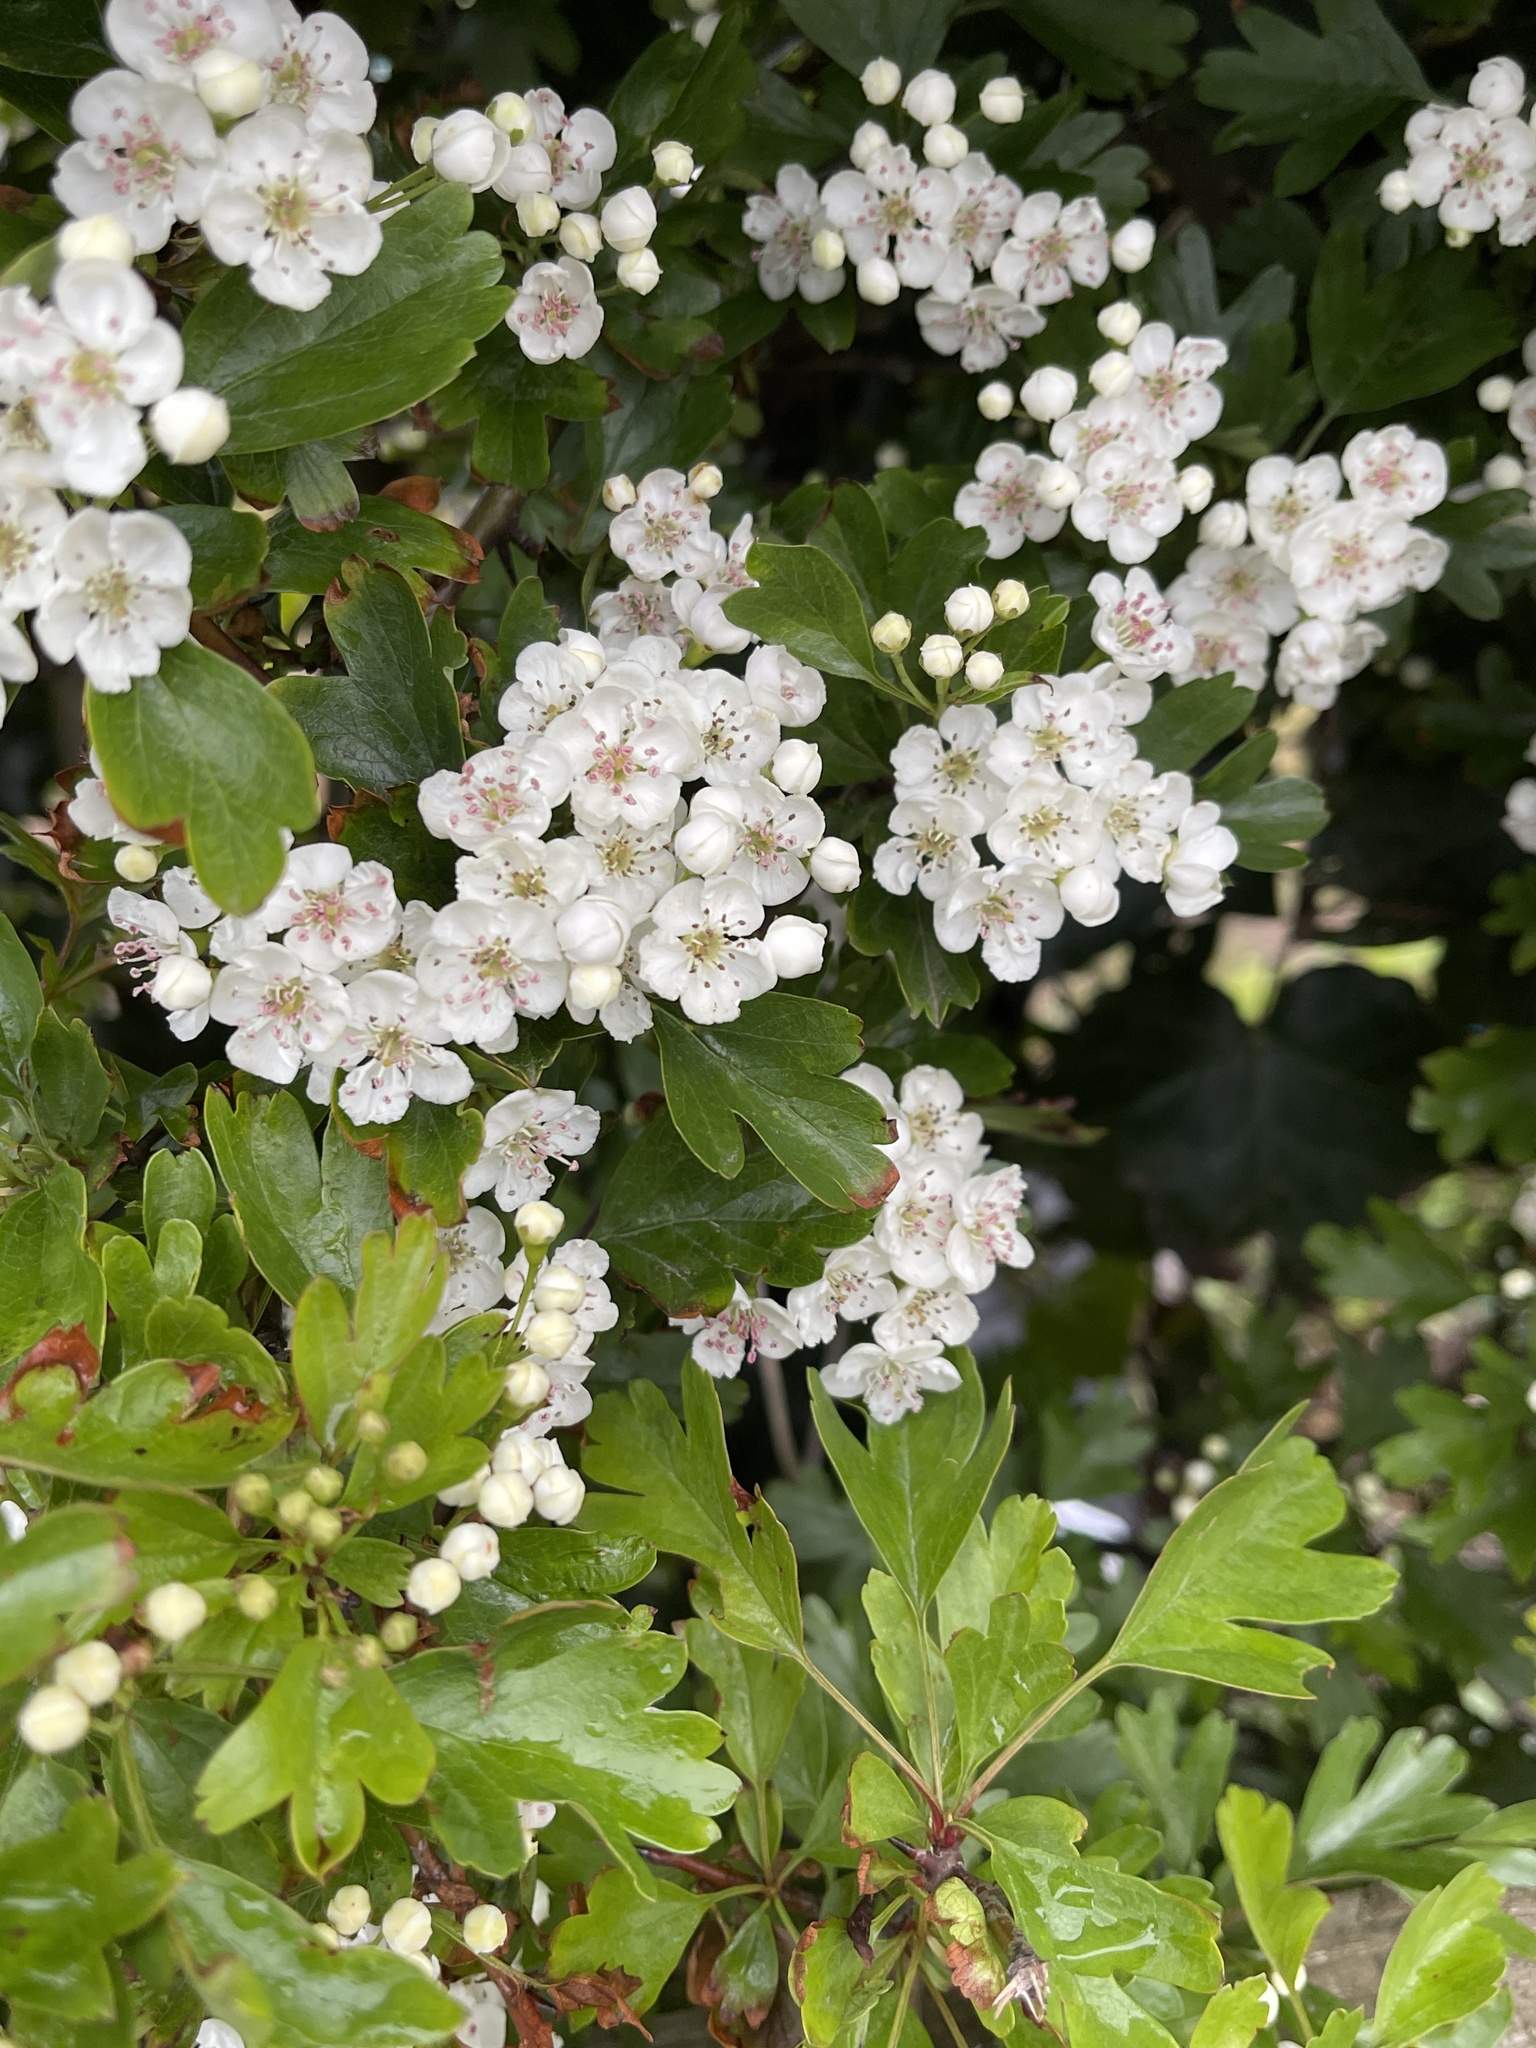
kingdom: Plantae
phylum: Tracheophyta
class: Magnoliopsida
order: Rosales
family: Rosaceae
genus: Crataegus
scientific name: Crataegus monogyna
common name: Hawthorn
